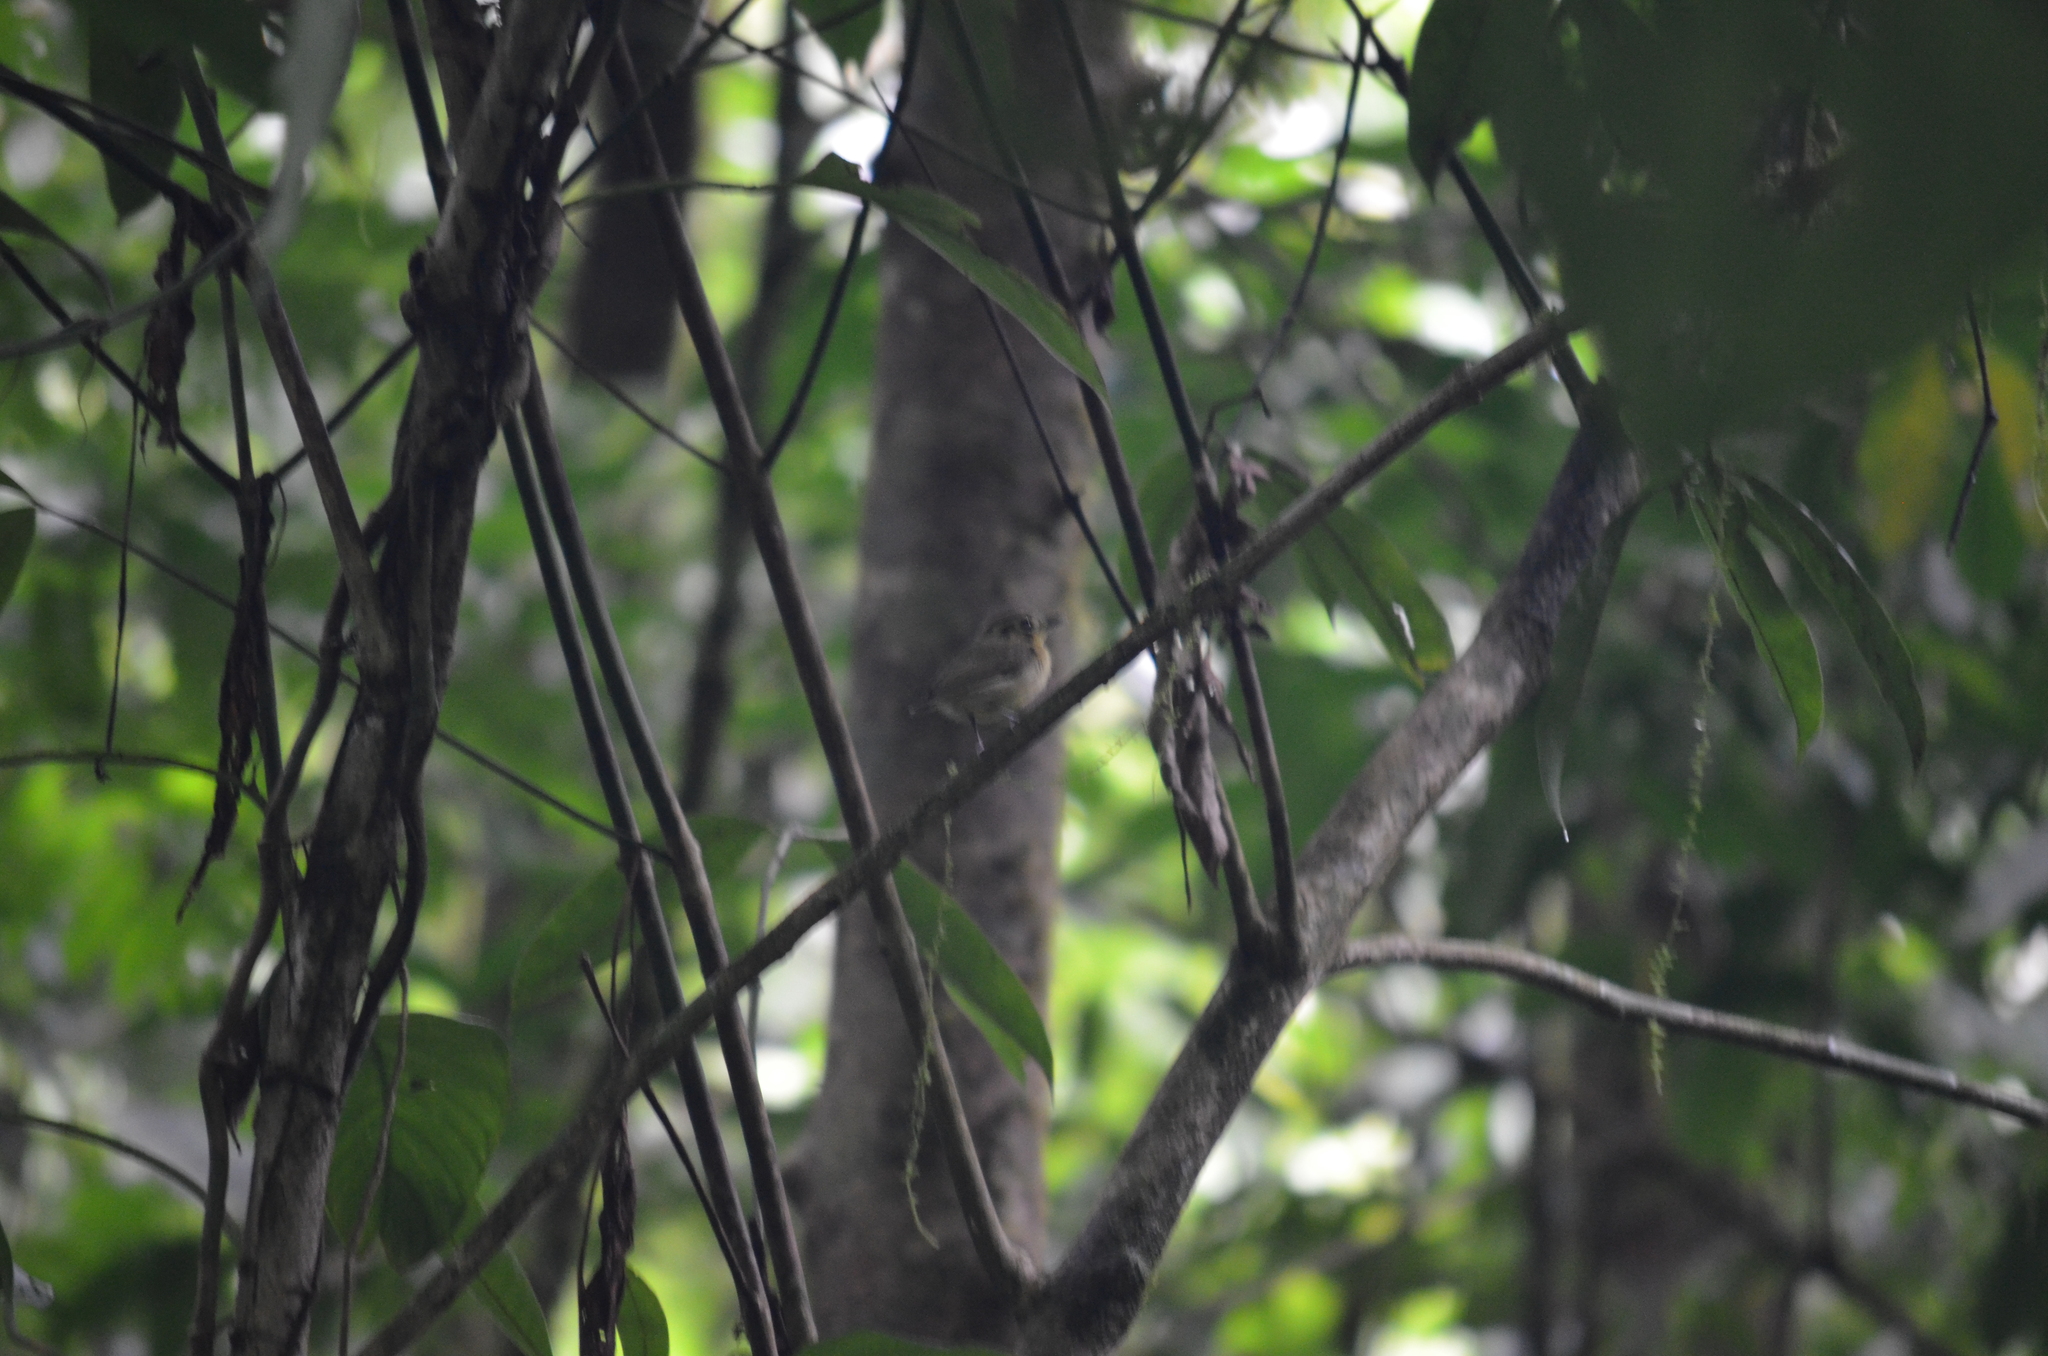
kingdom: Animalia
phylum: Chordata
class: Aves
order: Passeriformes
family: Tyrannidae
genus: Platyrinchus
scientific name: Platyrinchus coronatus
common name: Golden-crowned spadebill
